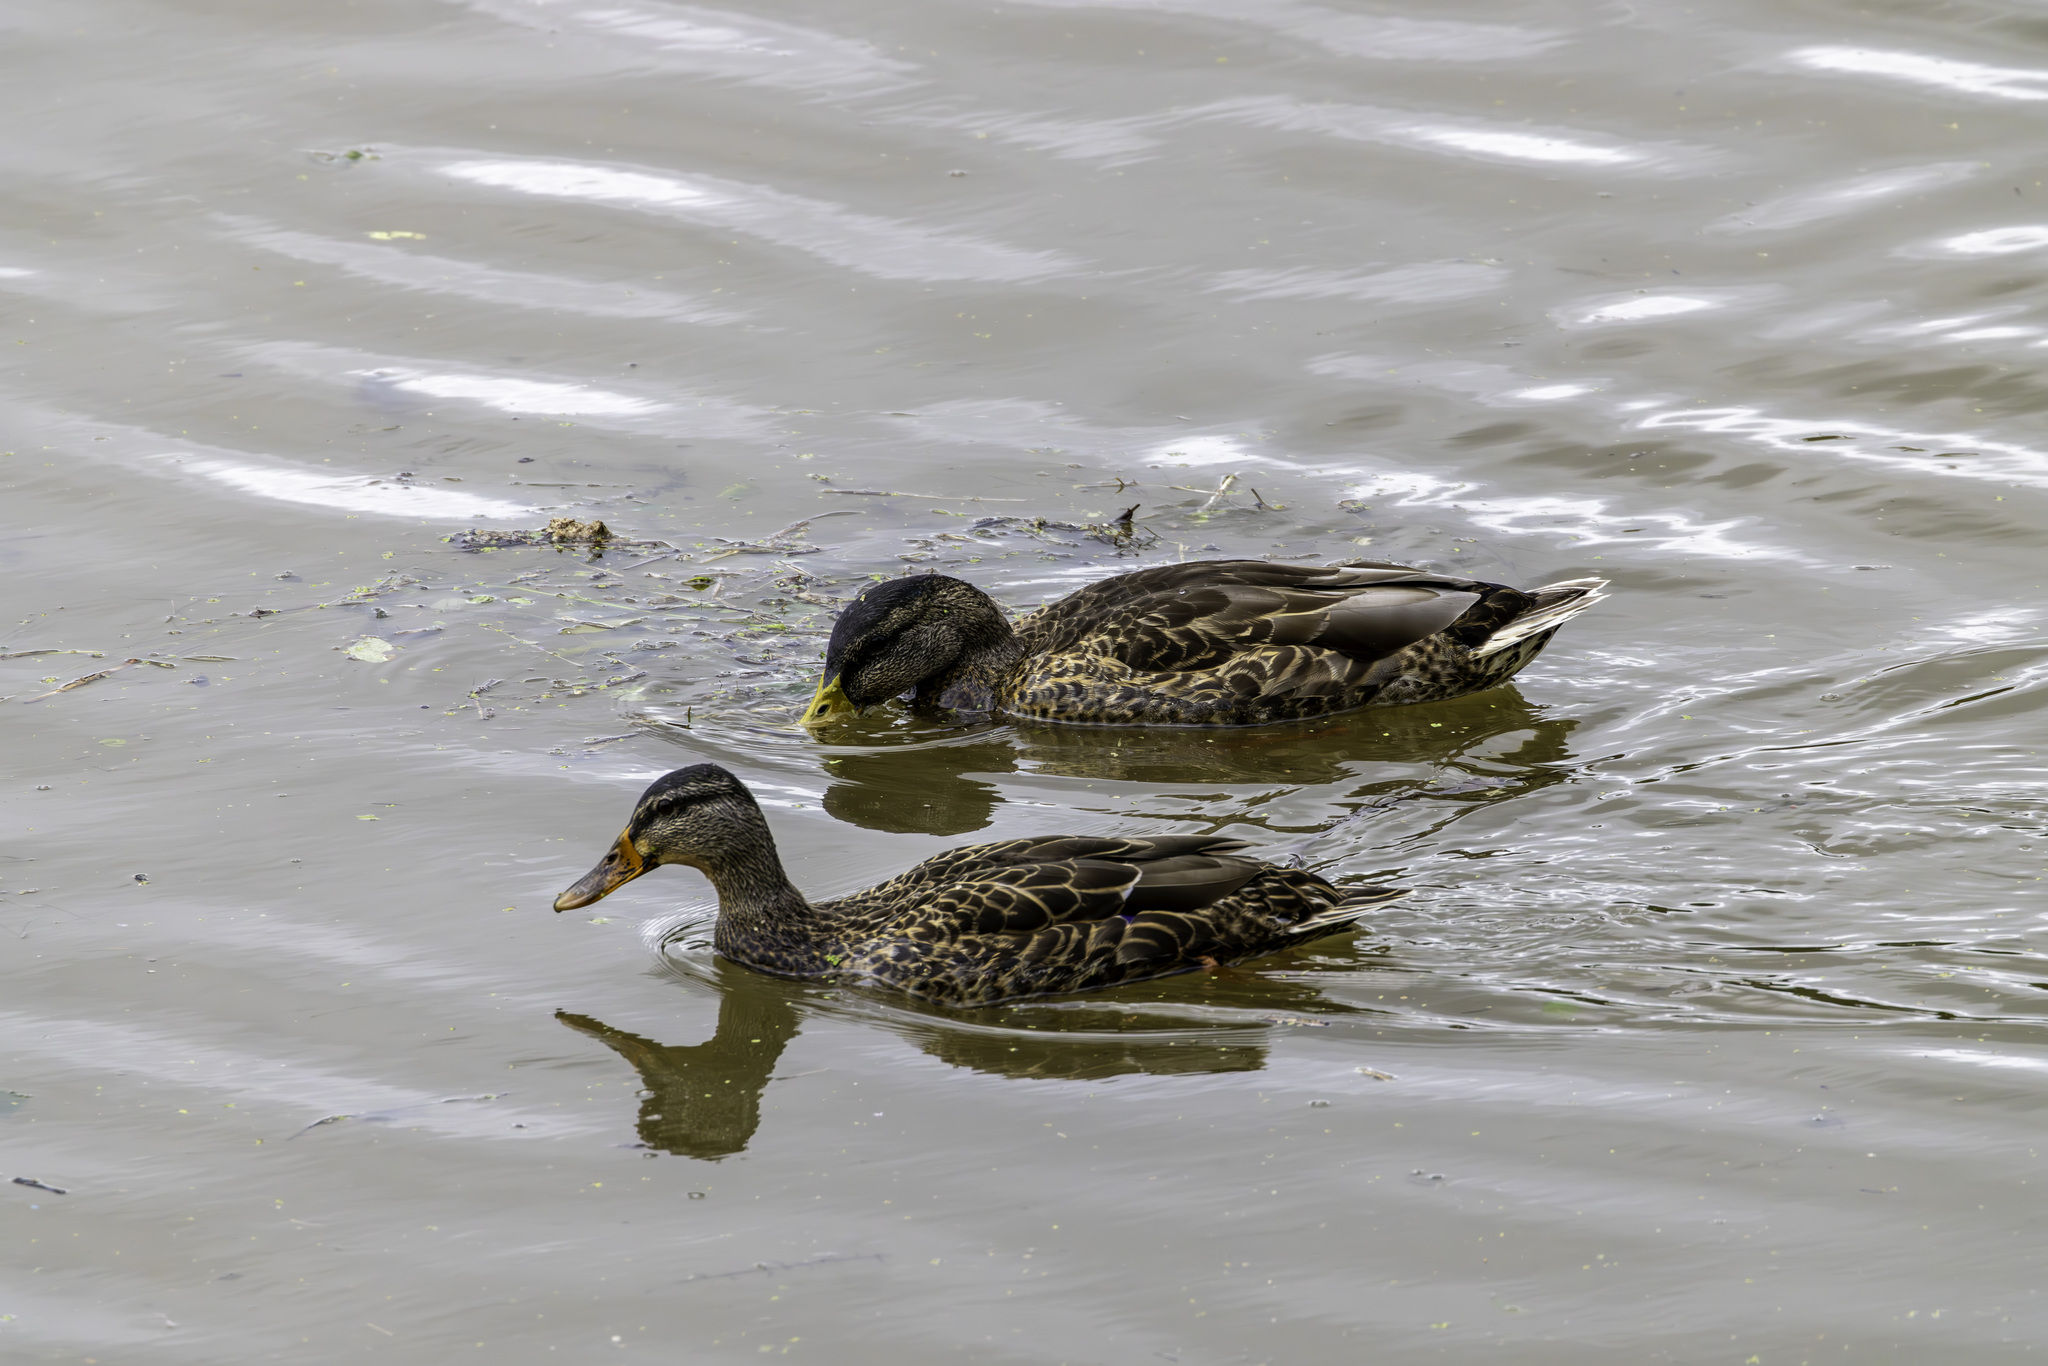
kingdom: Animalia
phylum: Chordata
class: Aves
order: Anseriformes
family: Anatidae
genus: Anas
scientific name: Anas platyrhynchos
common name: Mallard
